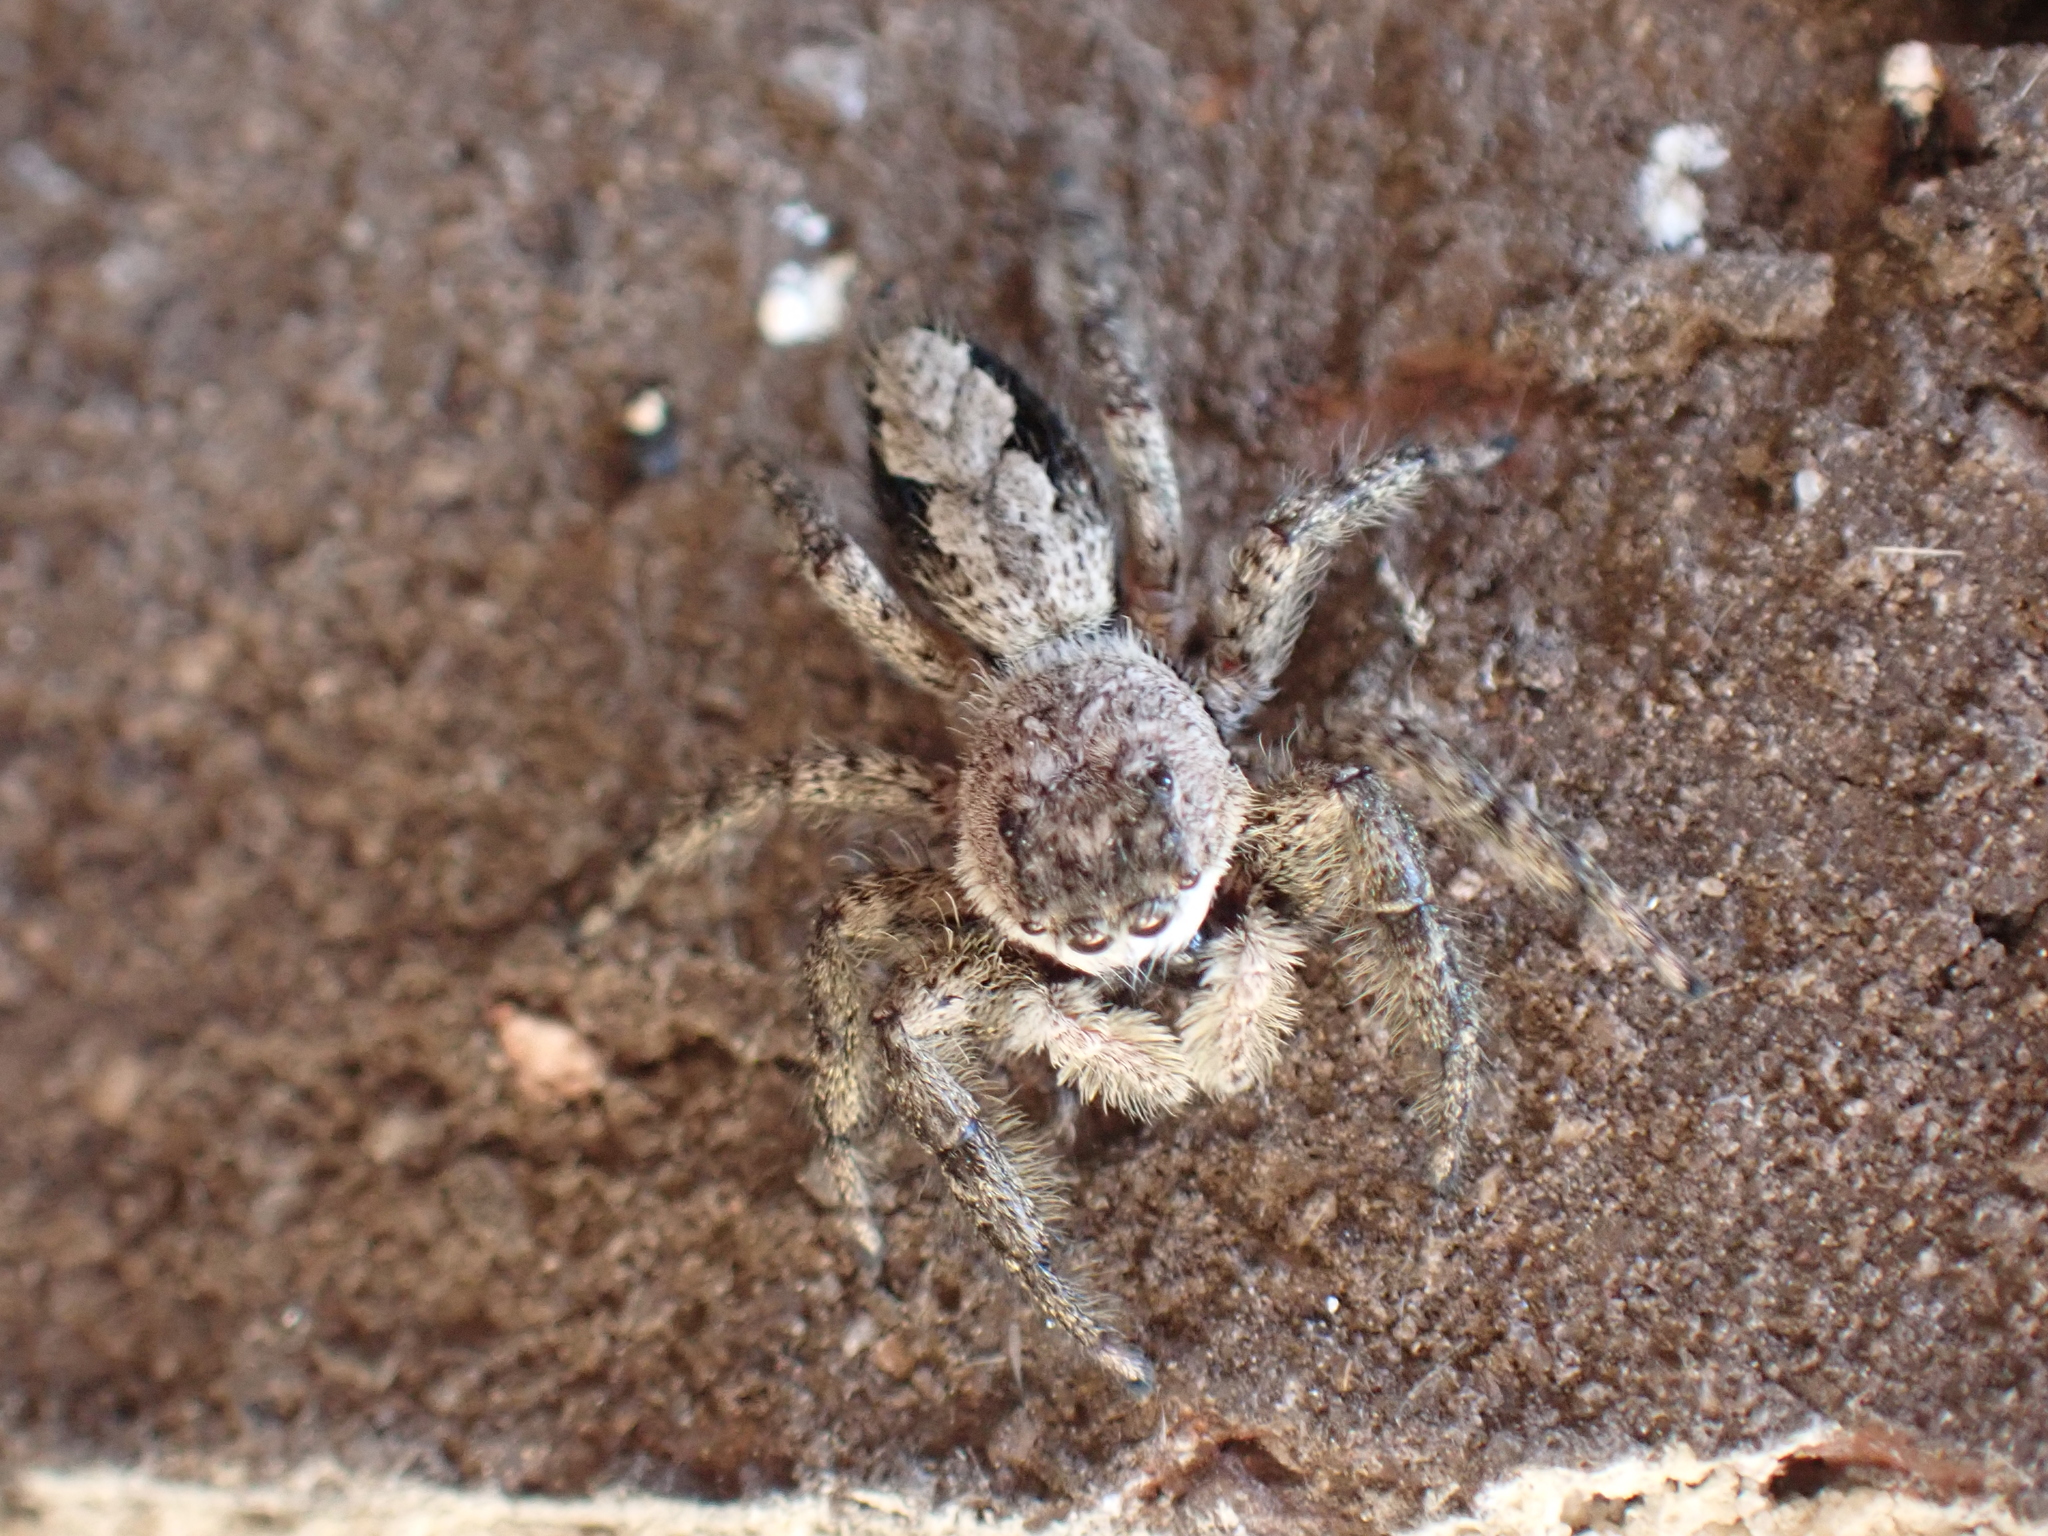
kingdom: Animalia
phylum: Arthropoda
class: Arachnida
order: Araneae
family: Salticidae
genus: Platycryptus
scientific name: Platycryptus undatus
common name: Tan jumping spider
